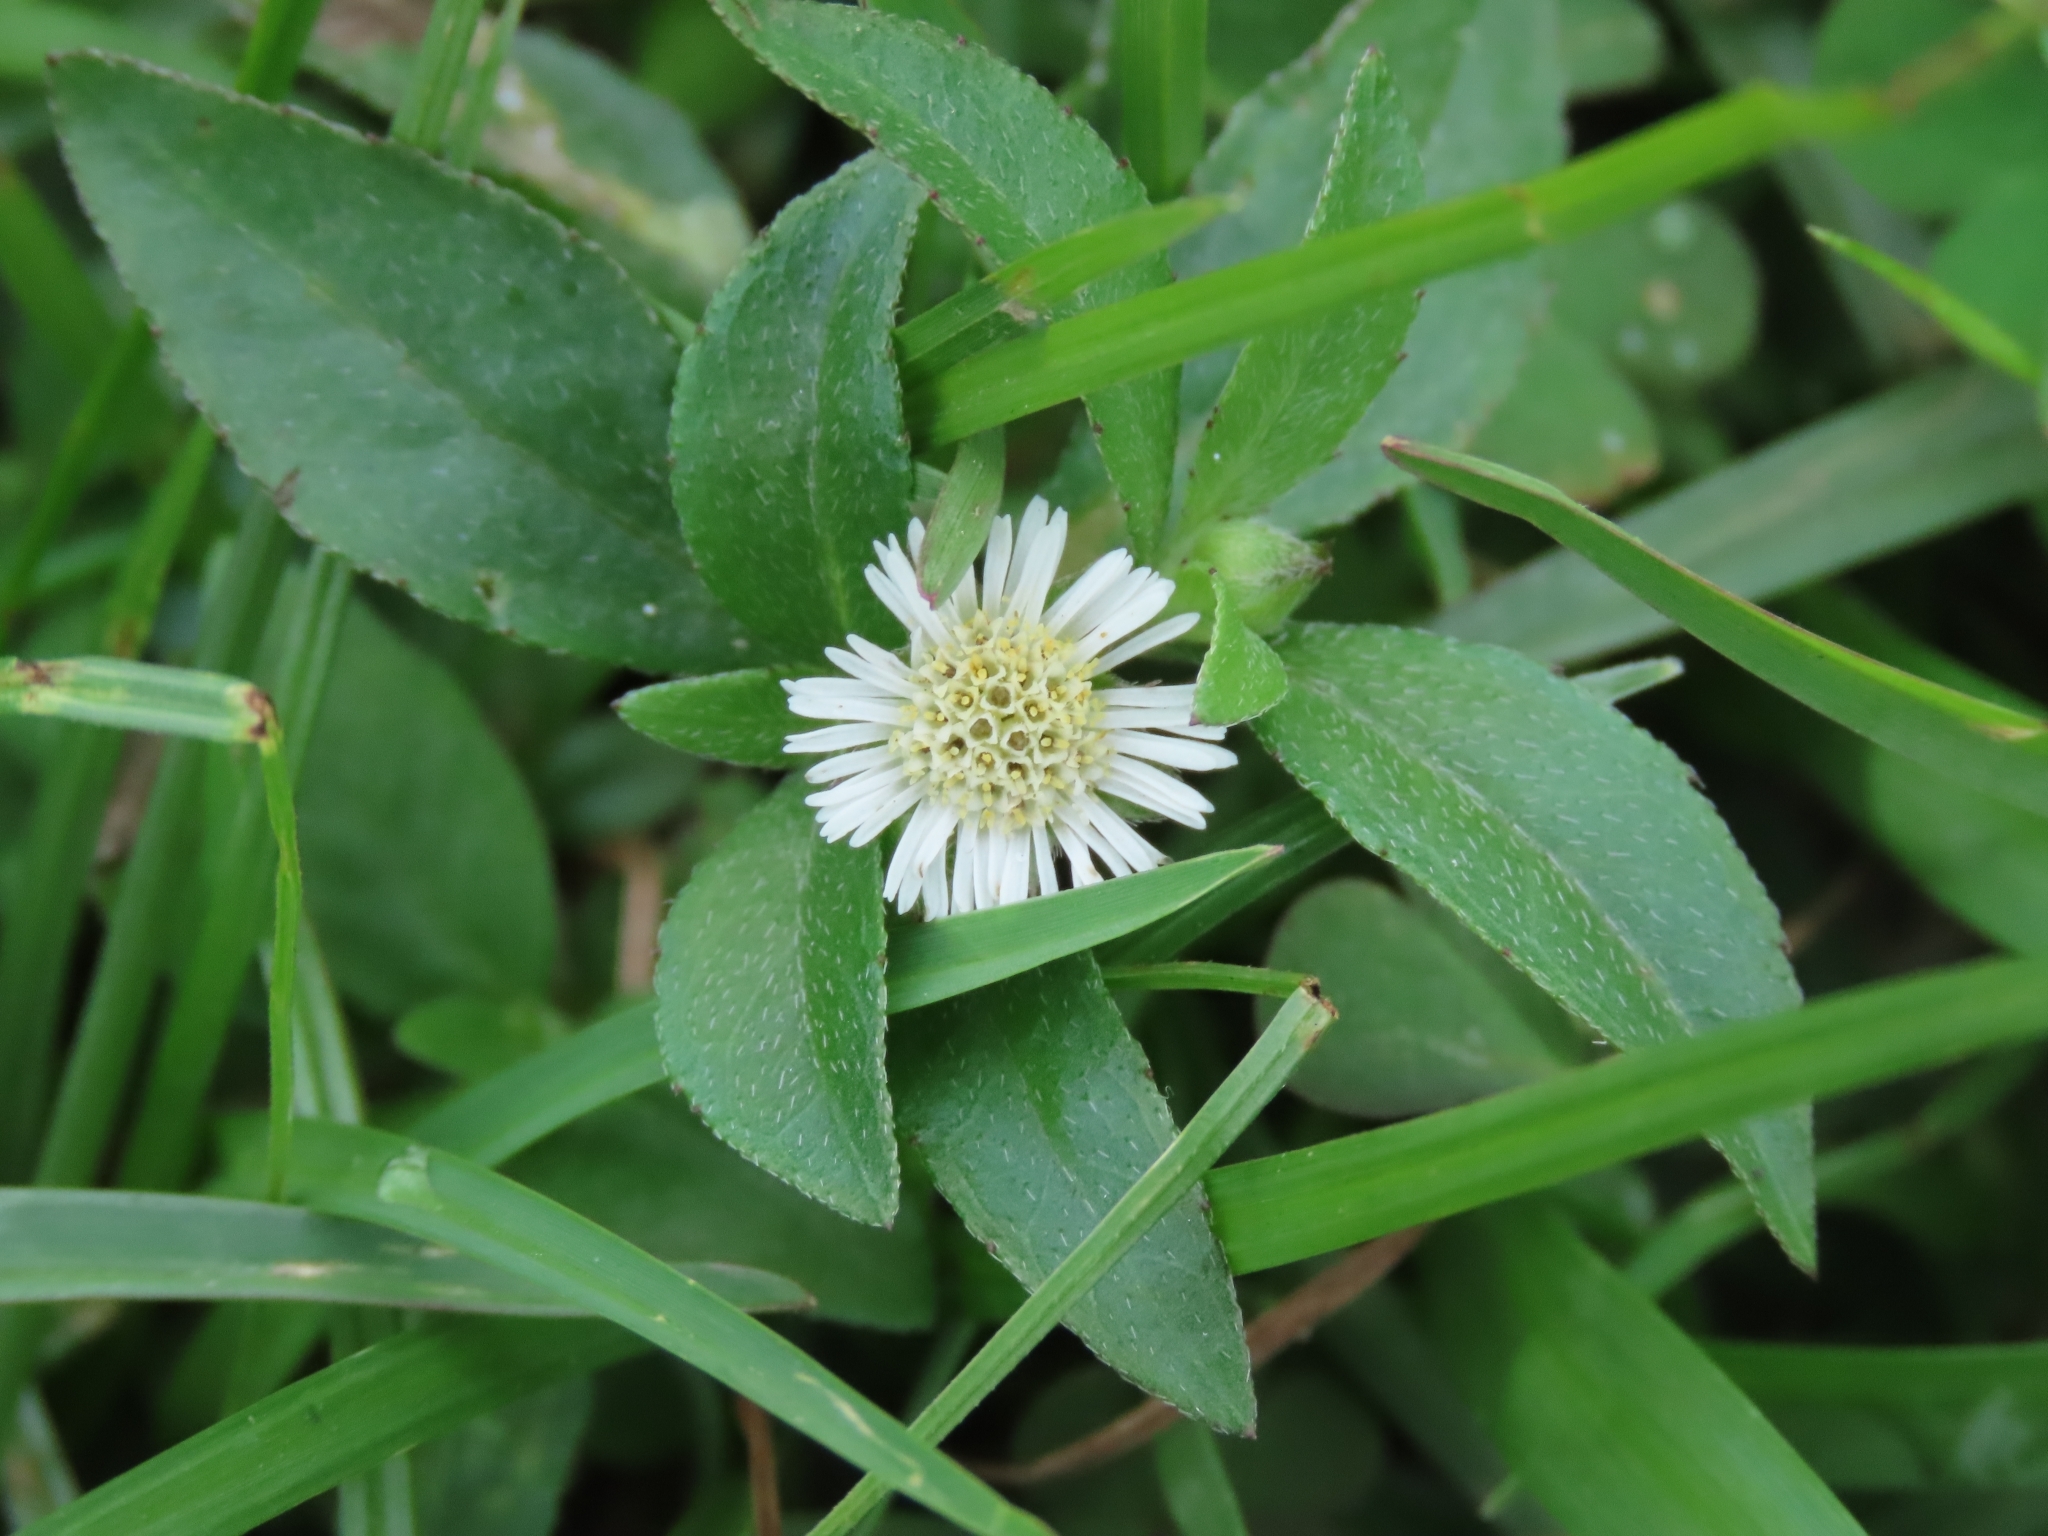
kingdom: Plantae
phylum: Tracheophyta
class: Magnoliopsida
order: Asterales
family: Asteraceae
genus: Eclipta
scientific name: Eclipta prostrata
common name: False daisy
